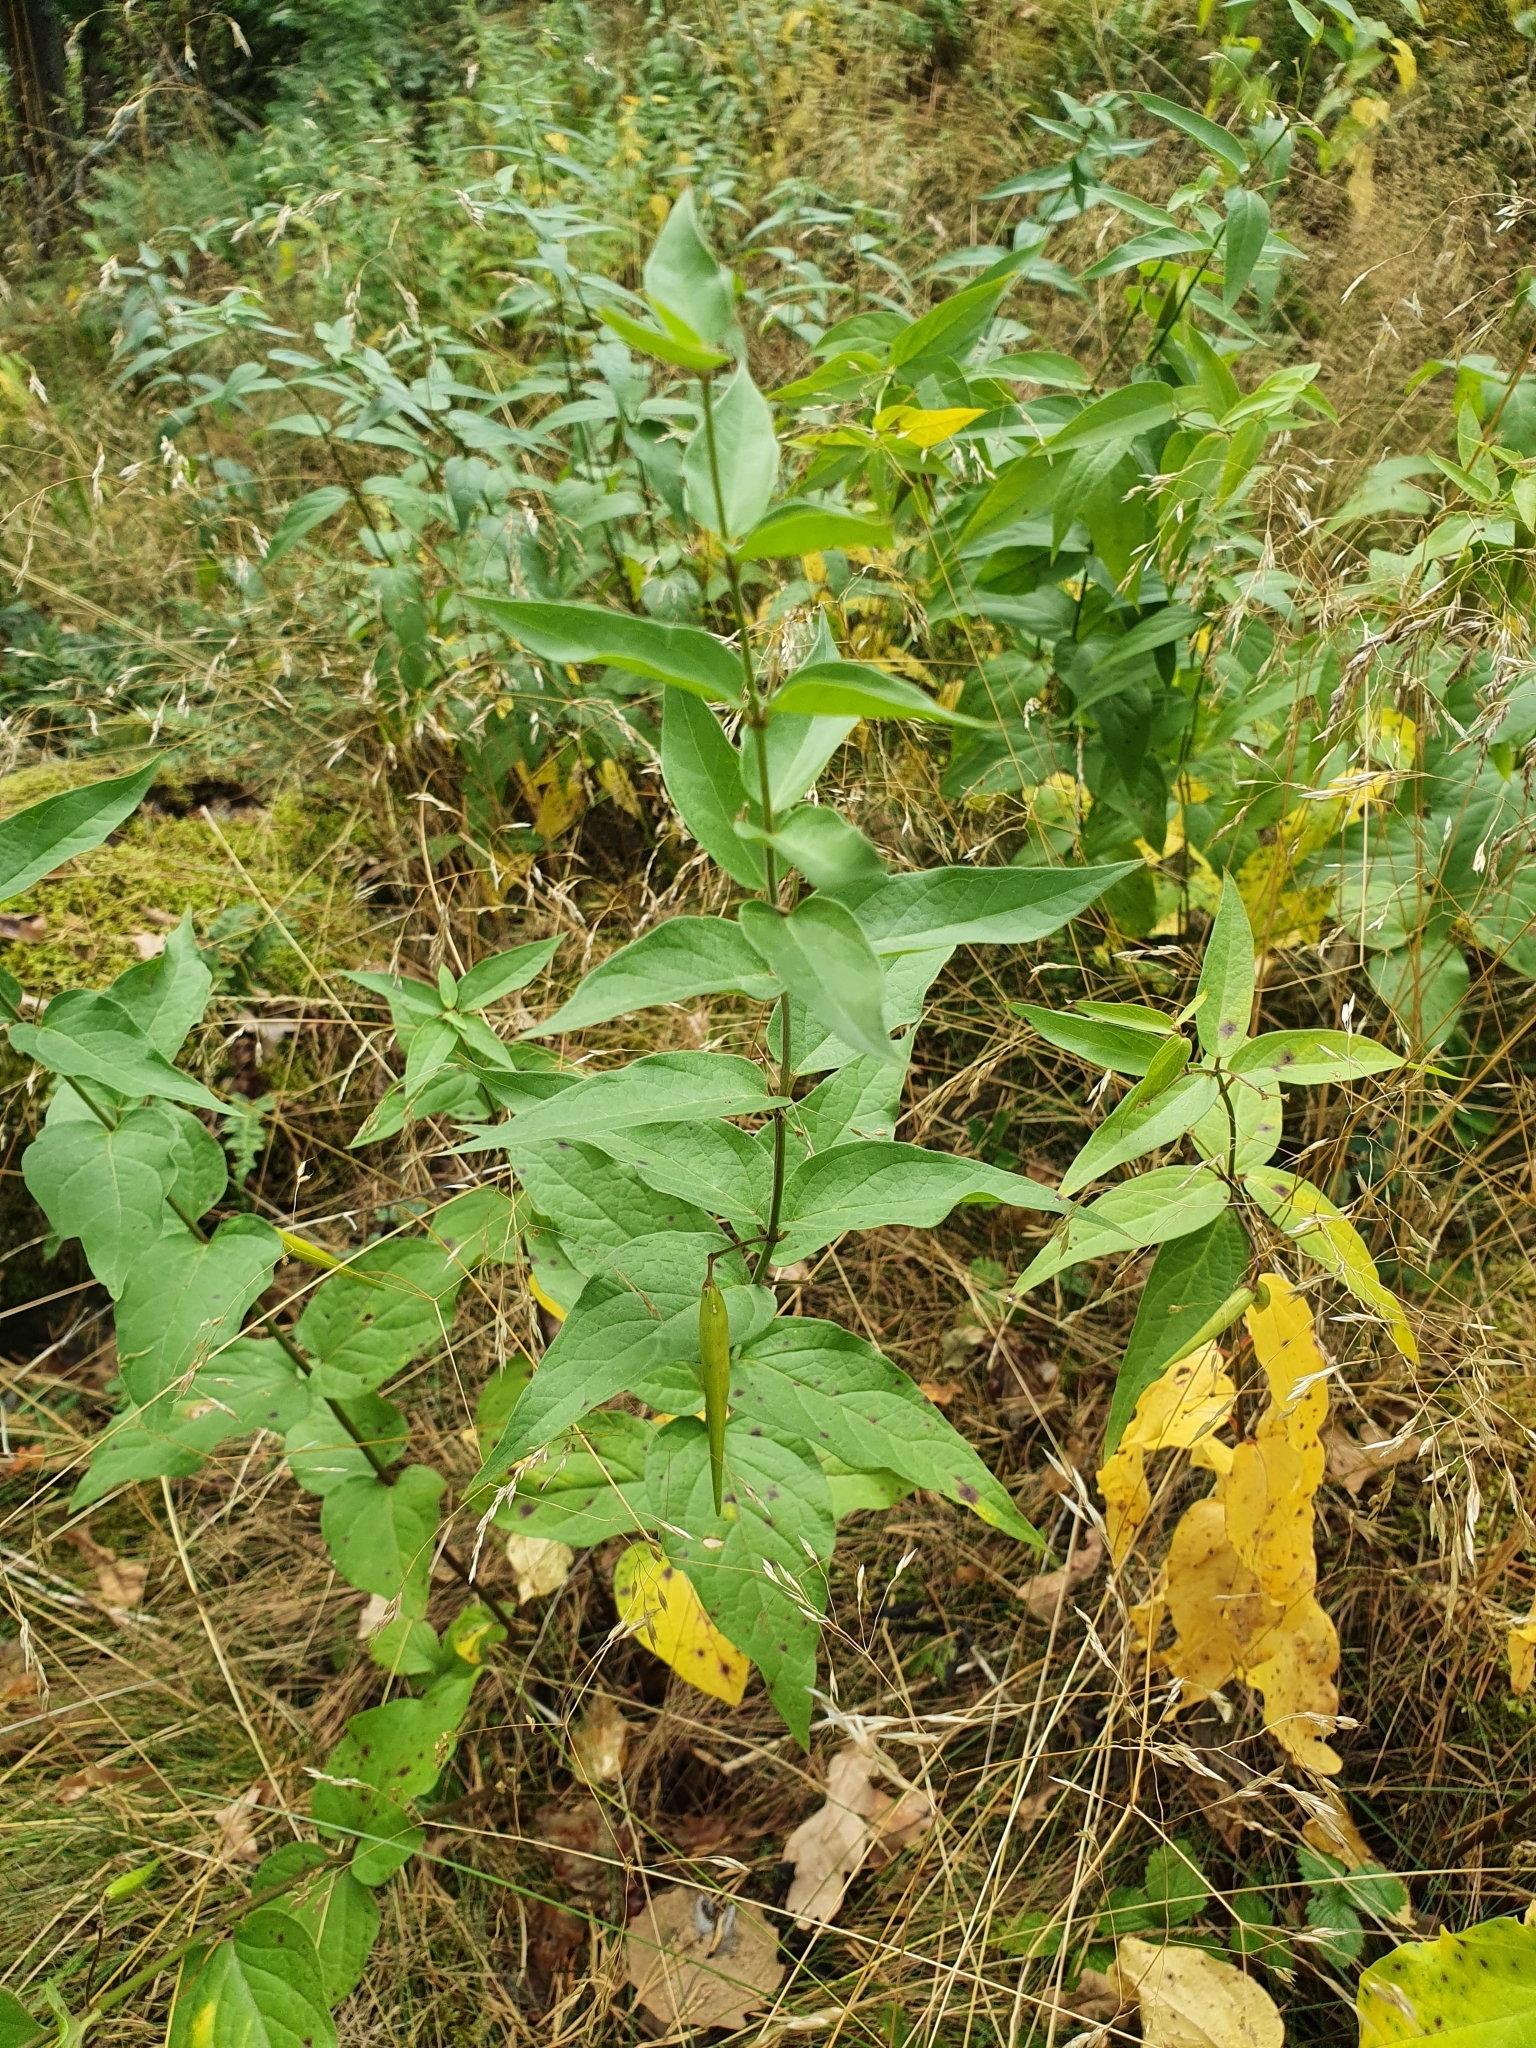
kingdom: Plantae
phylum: Tracheophyta
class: Magnoliopsida
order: Gentianales
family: Apocynaceae
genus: Vincetoxicum
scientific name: Vincetoxicum hirundinaria
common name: White swallowwort
